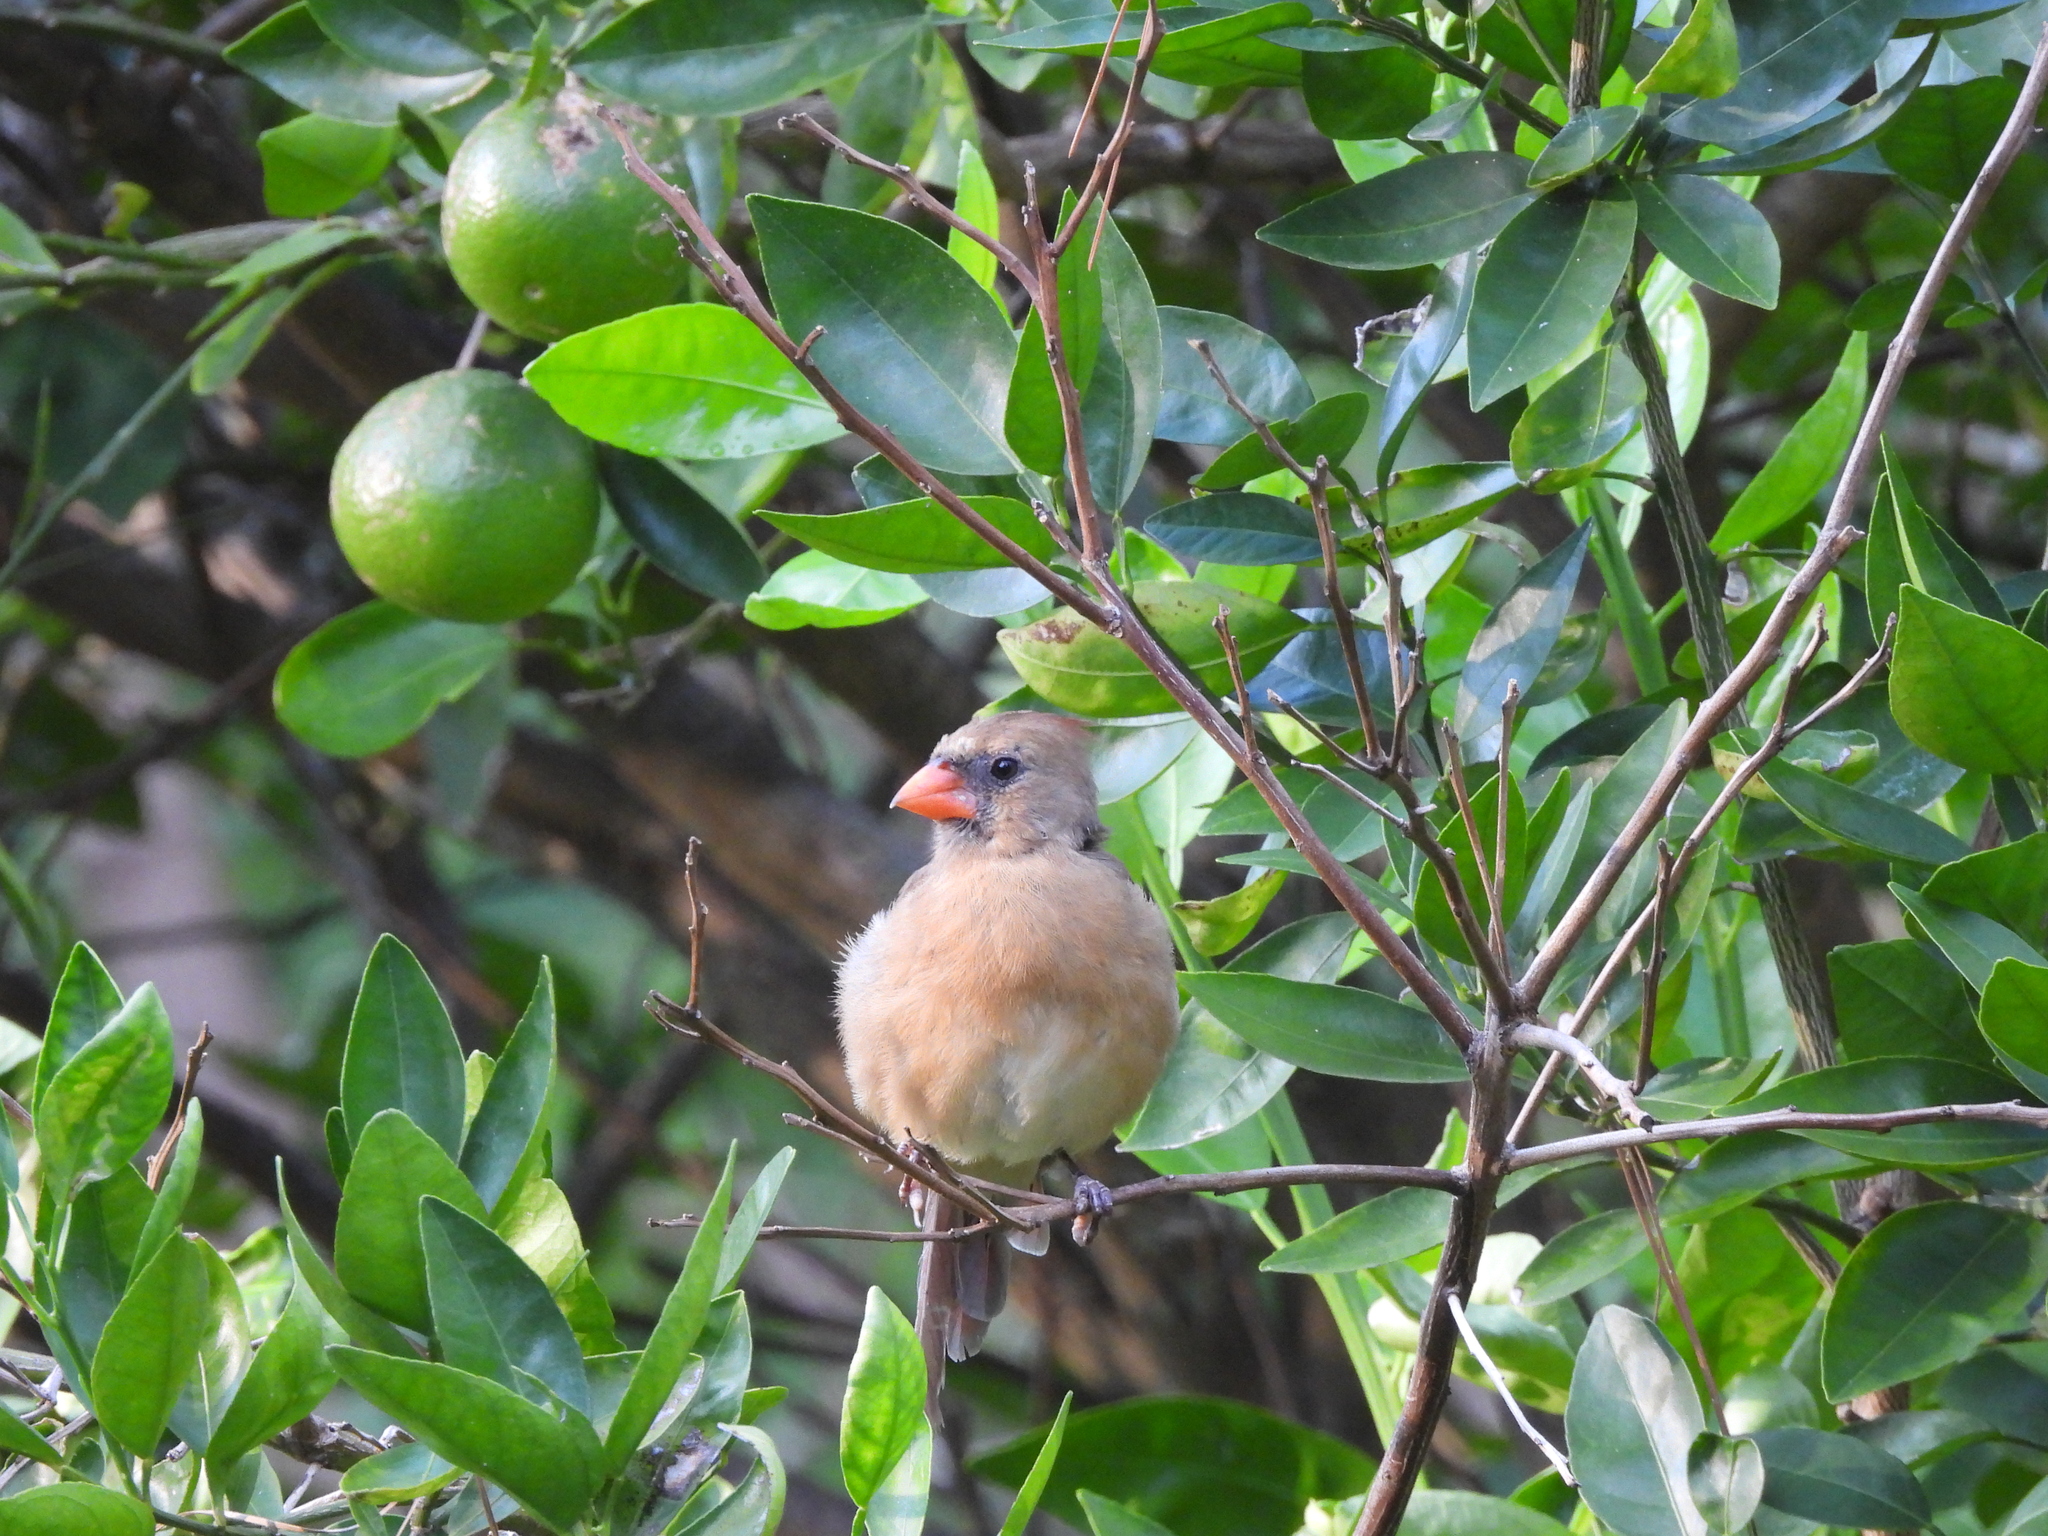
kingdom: Animalia
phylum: Chordata
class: Aves
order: Passeriformes
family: Cardinalidae
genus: Cardinalis
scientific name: Cardinalis cardinalis
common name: Northern cardinal
